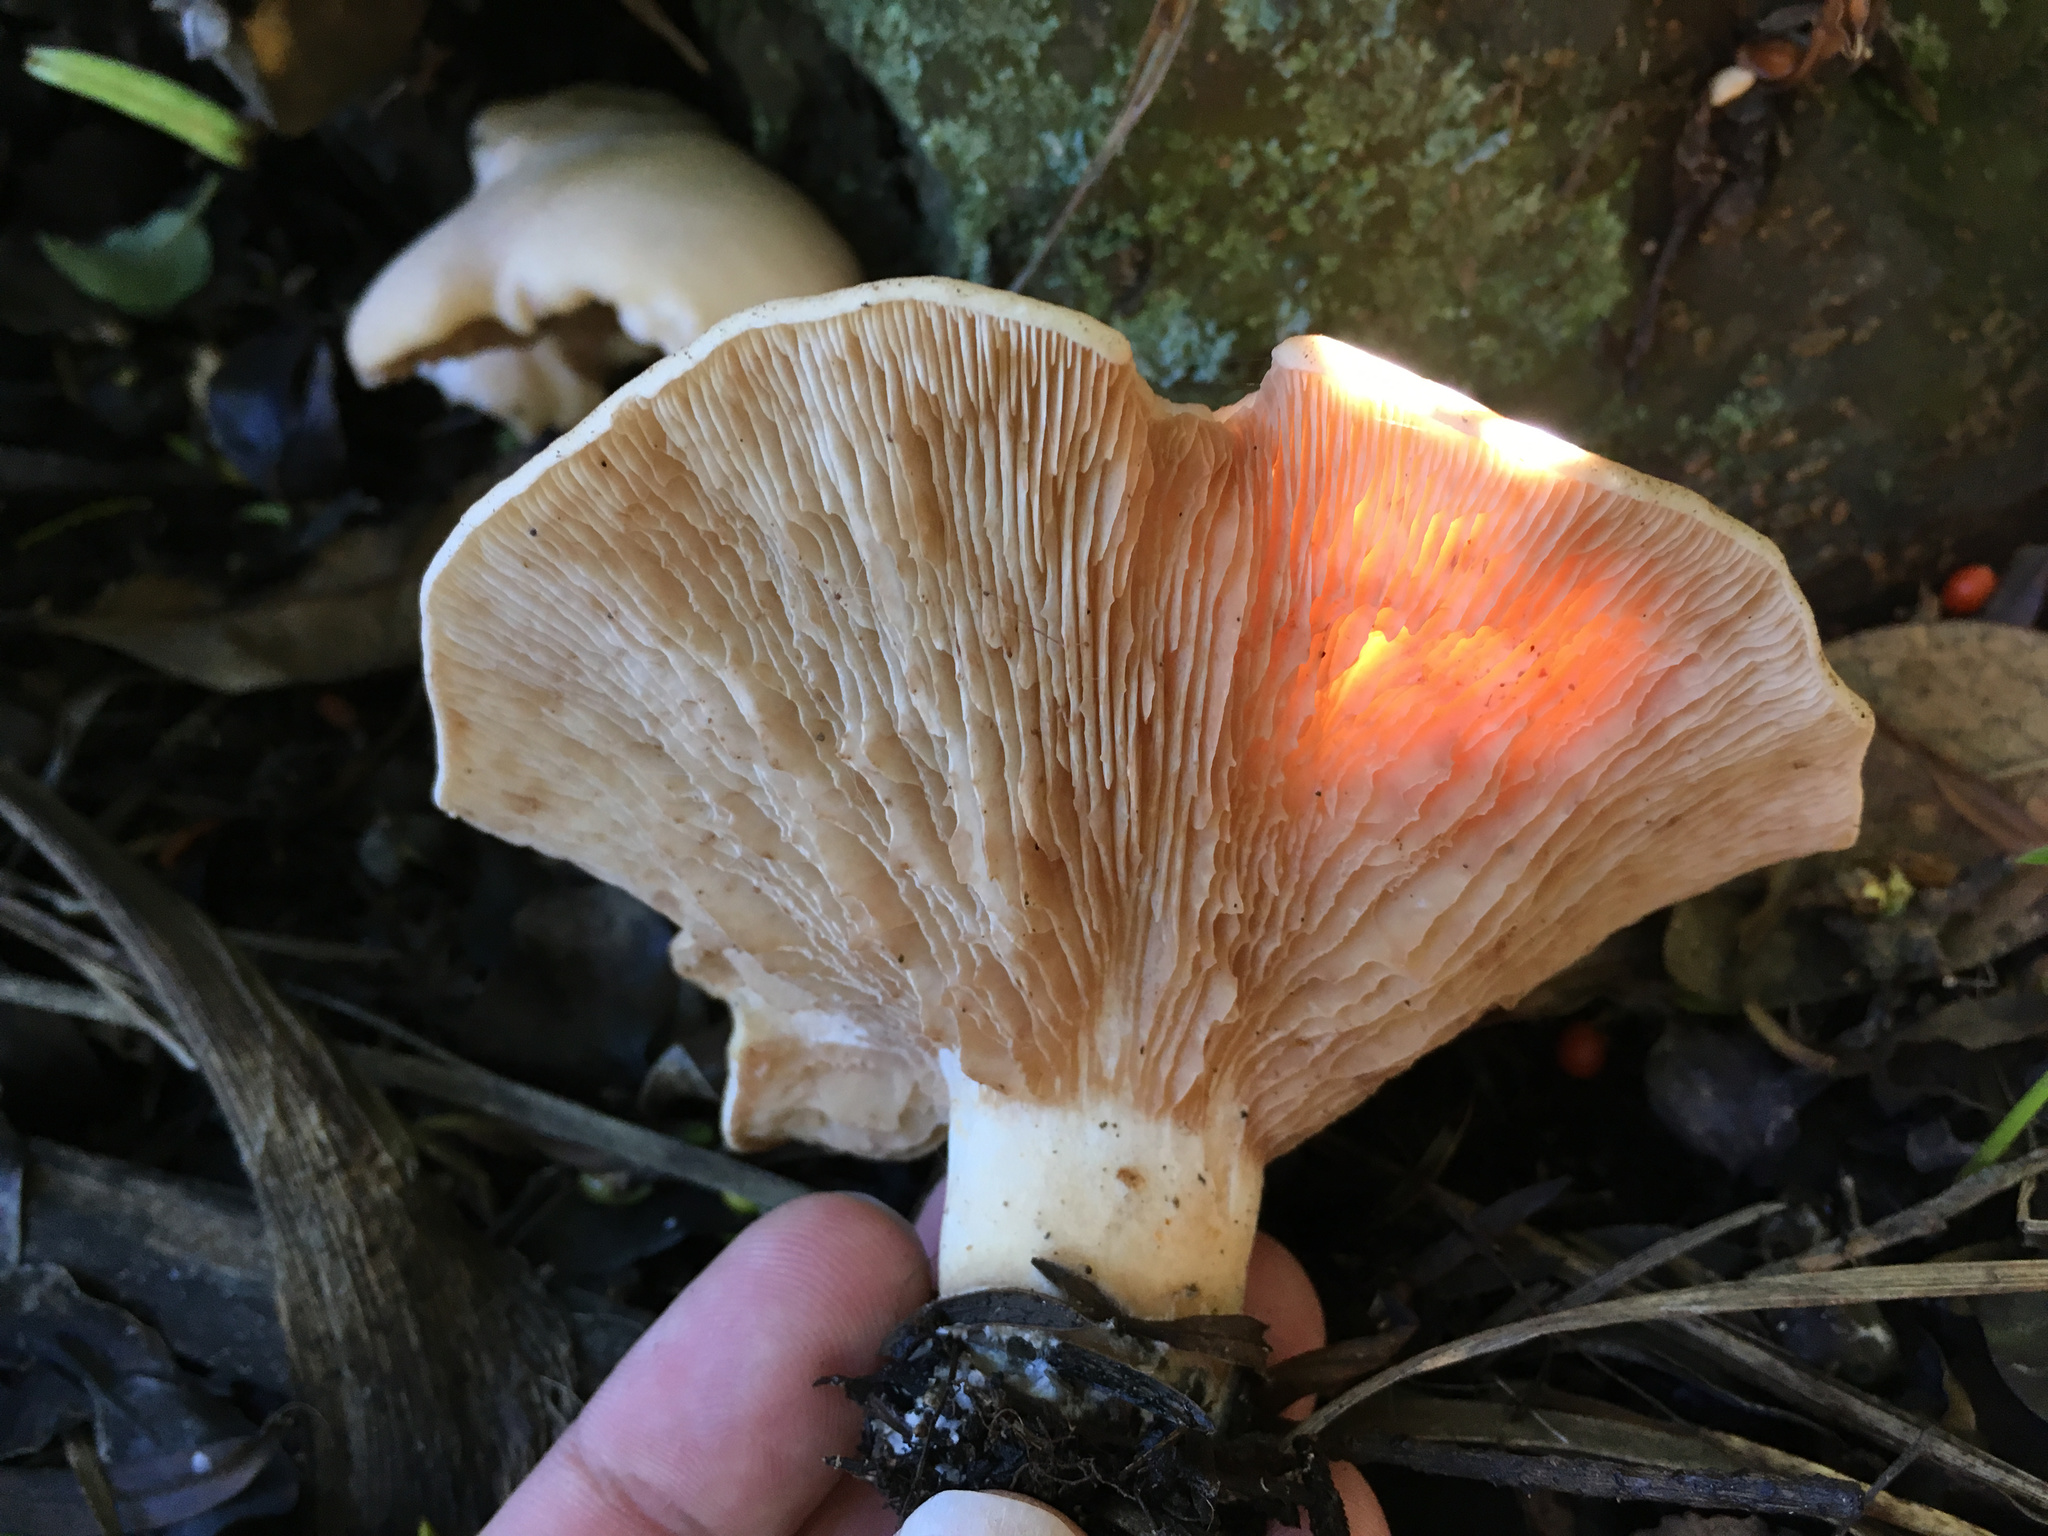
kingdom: Fungi
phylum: Basidiomycota
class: Agaricomycetes
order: Agaricales
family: Entolomataceae
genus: Clitopilus
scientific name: Clitopilus piperitus
